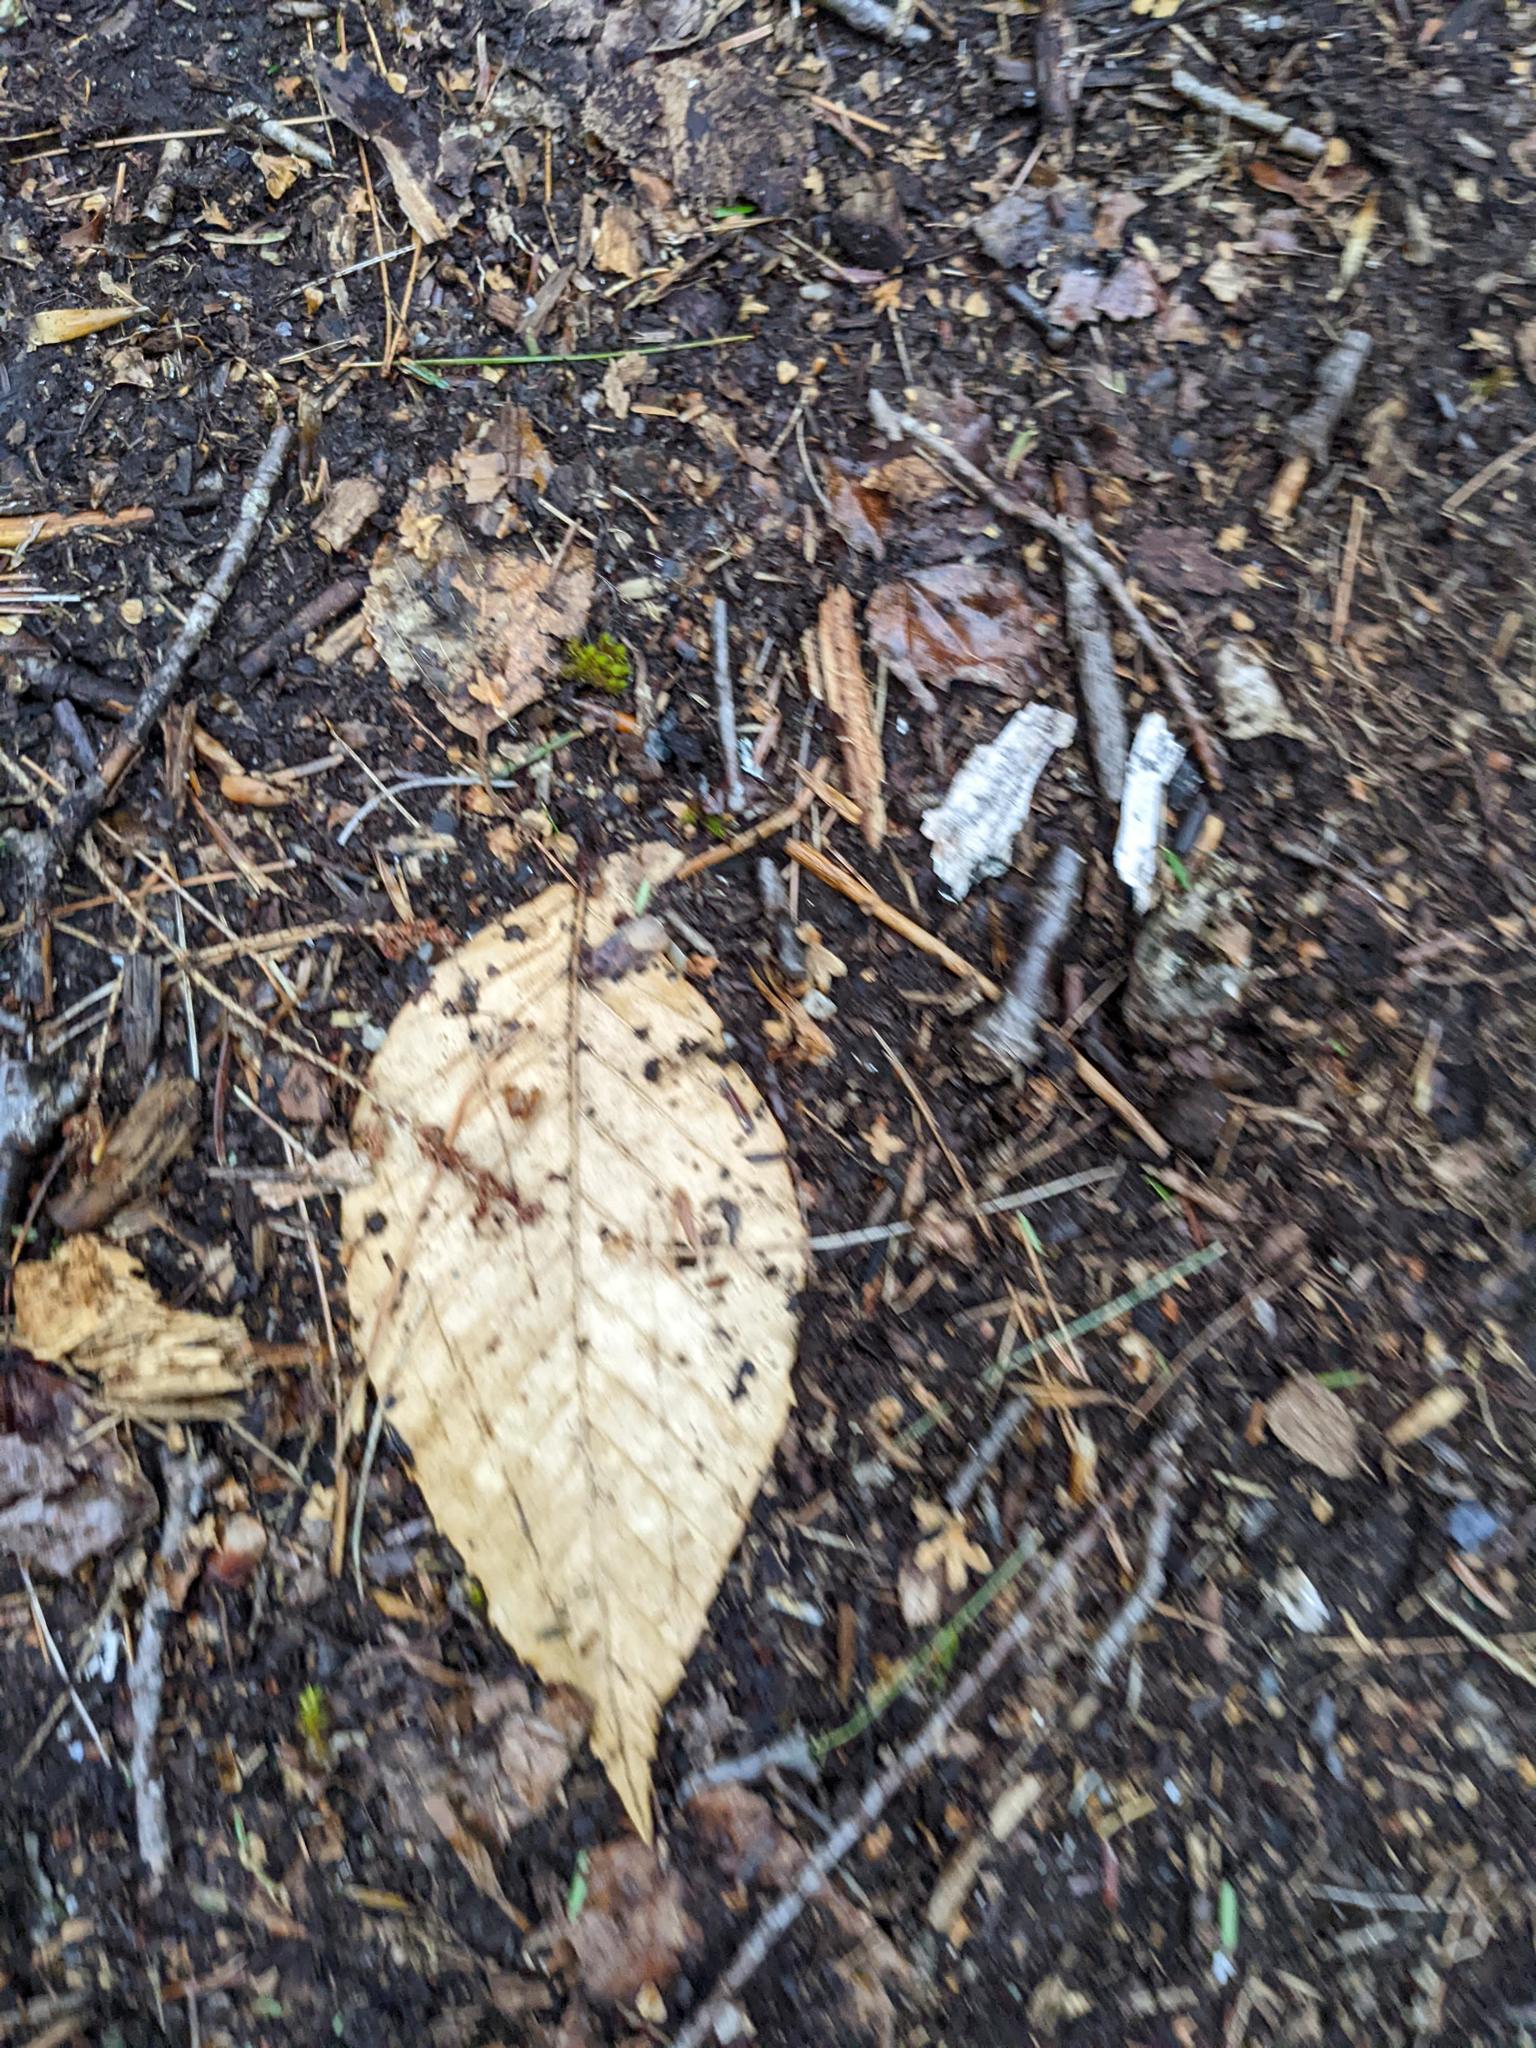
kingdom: Plantae
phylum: Tracheophyta
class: Magnoliopsida
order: Fagales
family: Fagaceae
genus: Fagus
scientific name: Fagus grandifolia
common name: American beech
